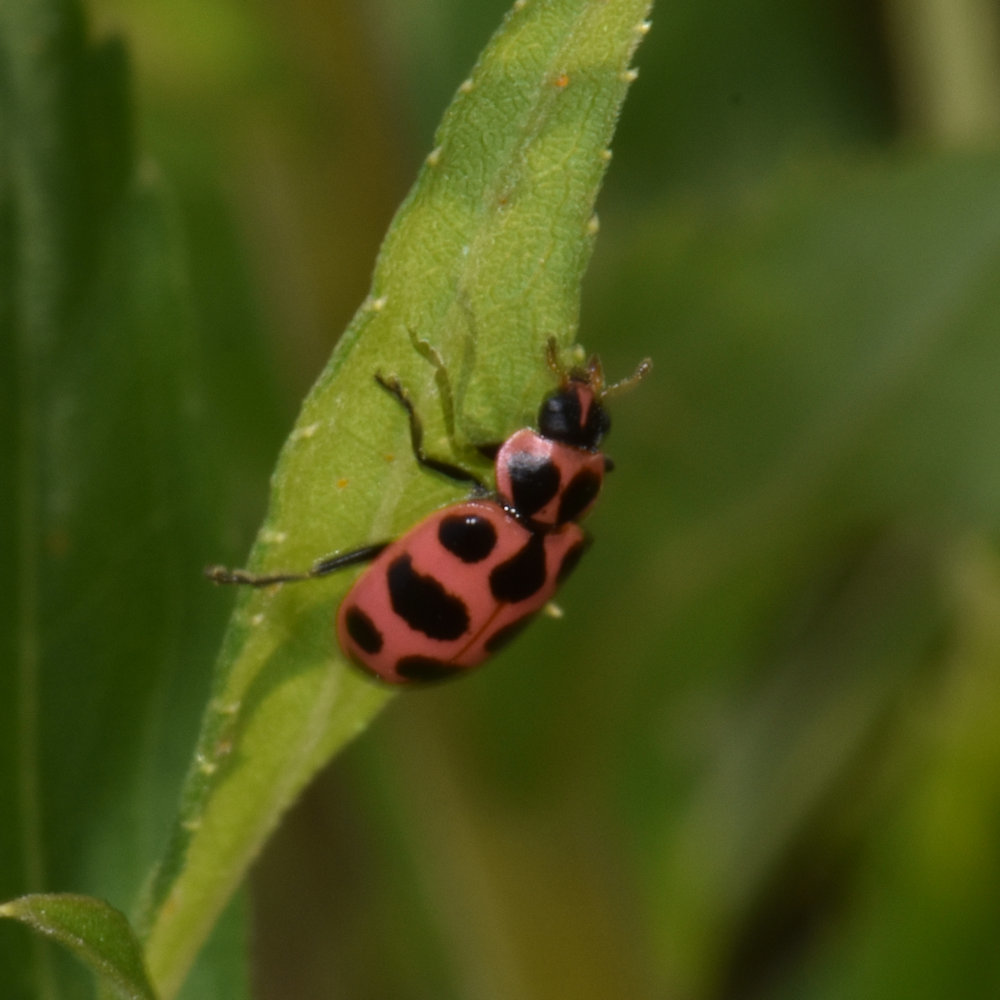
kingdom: Animalia
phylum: Arthropoda
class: Insecta
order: Coleoptera
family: Coccinellidae
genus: Coleomegilla
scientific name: Coleomegilla maculata
